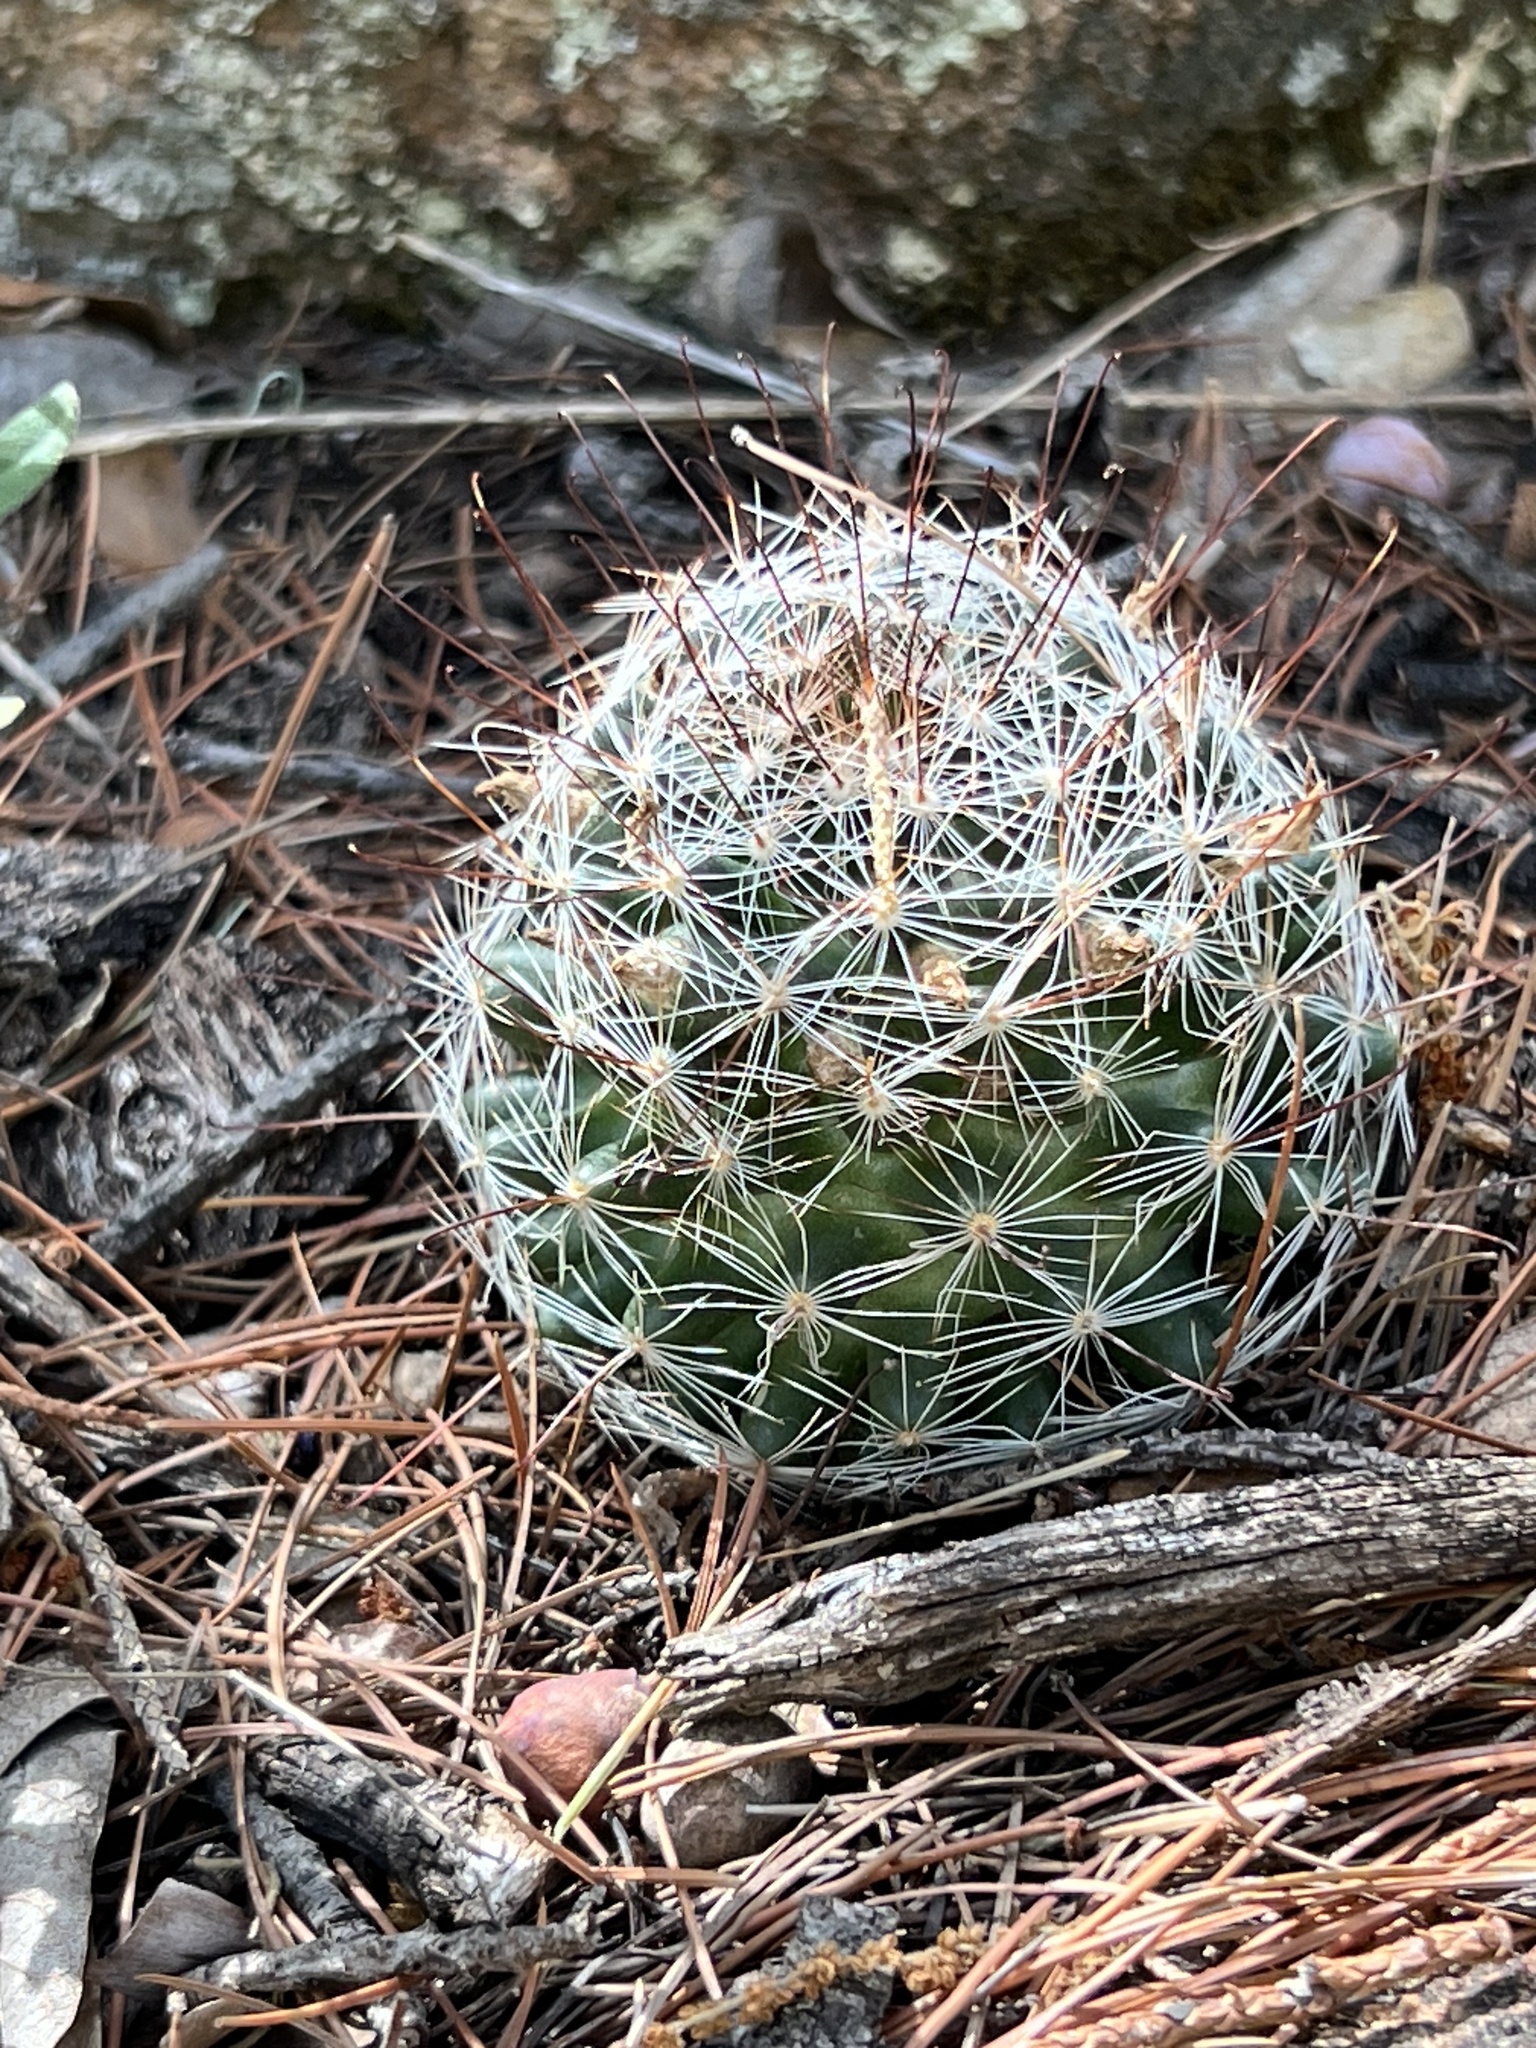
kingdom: Plantae
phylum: Tracheophyta
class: Magnoliopsida
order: Caryophyllales
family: Cactaceae
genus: Cochemiea
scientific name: Cochemiea wrightii
